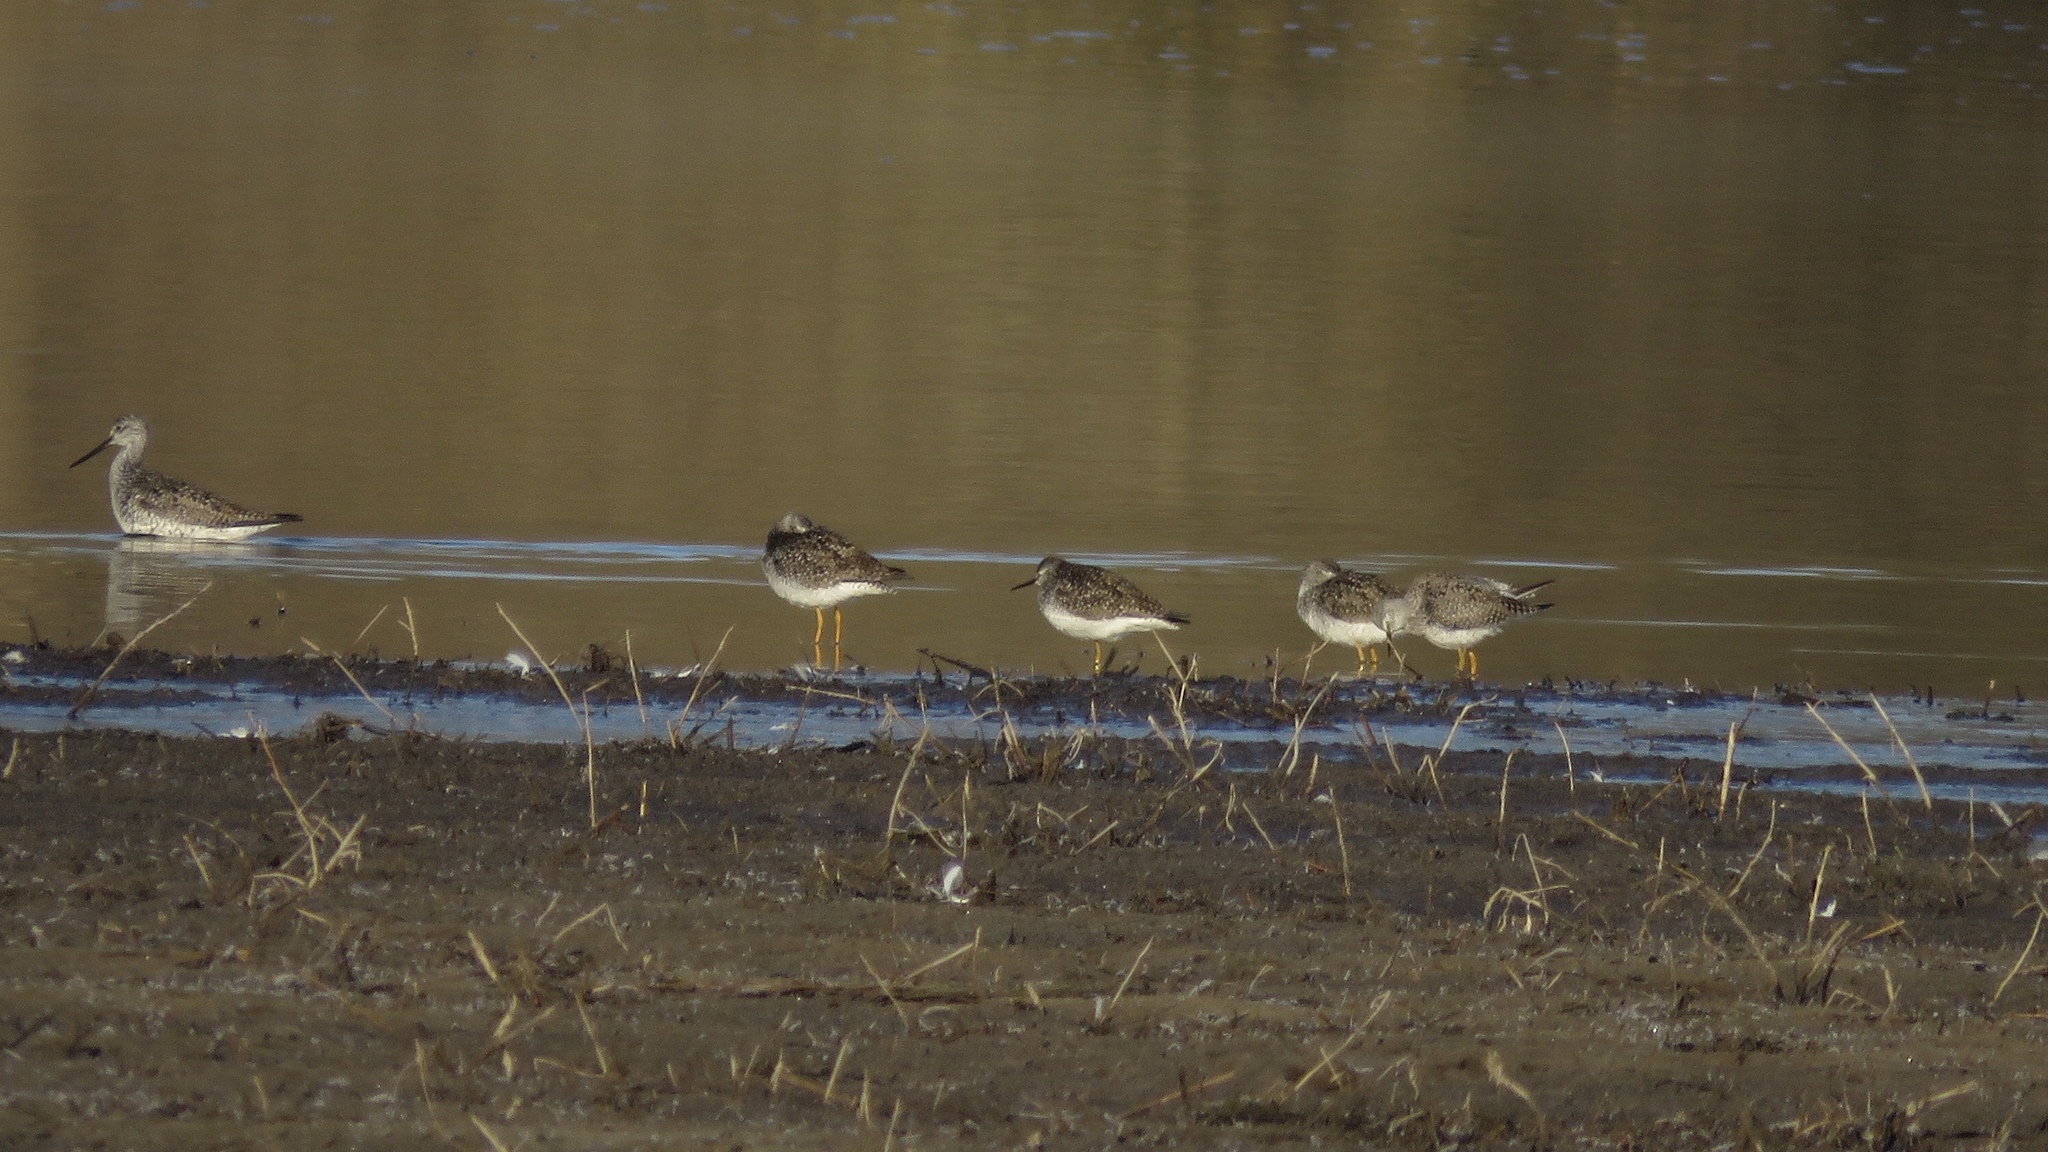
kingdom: Animalia
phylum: Chordata
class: Aves
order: Charadriiformes
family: Scolopacidae
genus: Tringa
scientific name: Tringa flavipes
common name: Lesser yellowlegs
